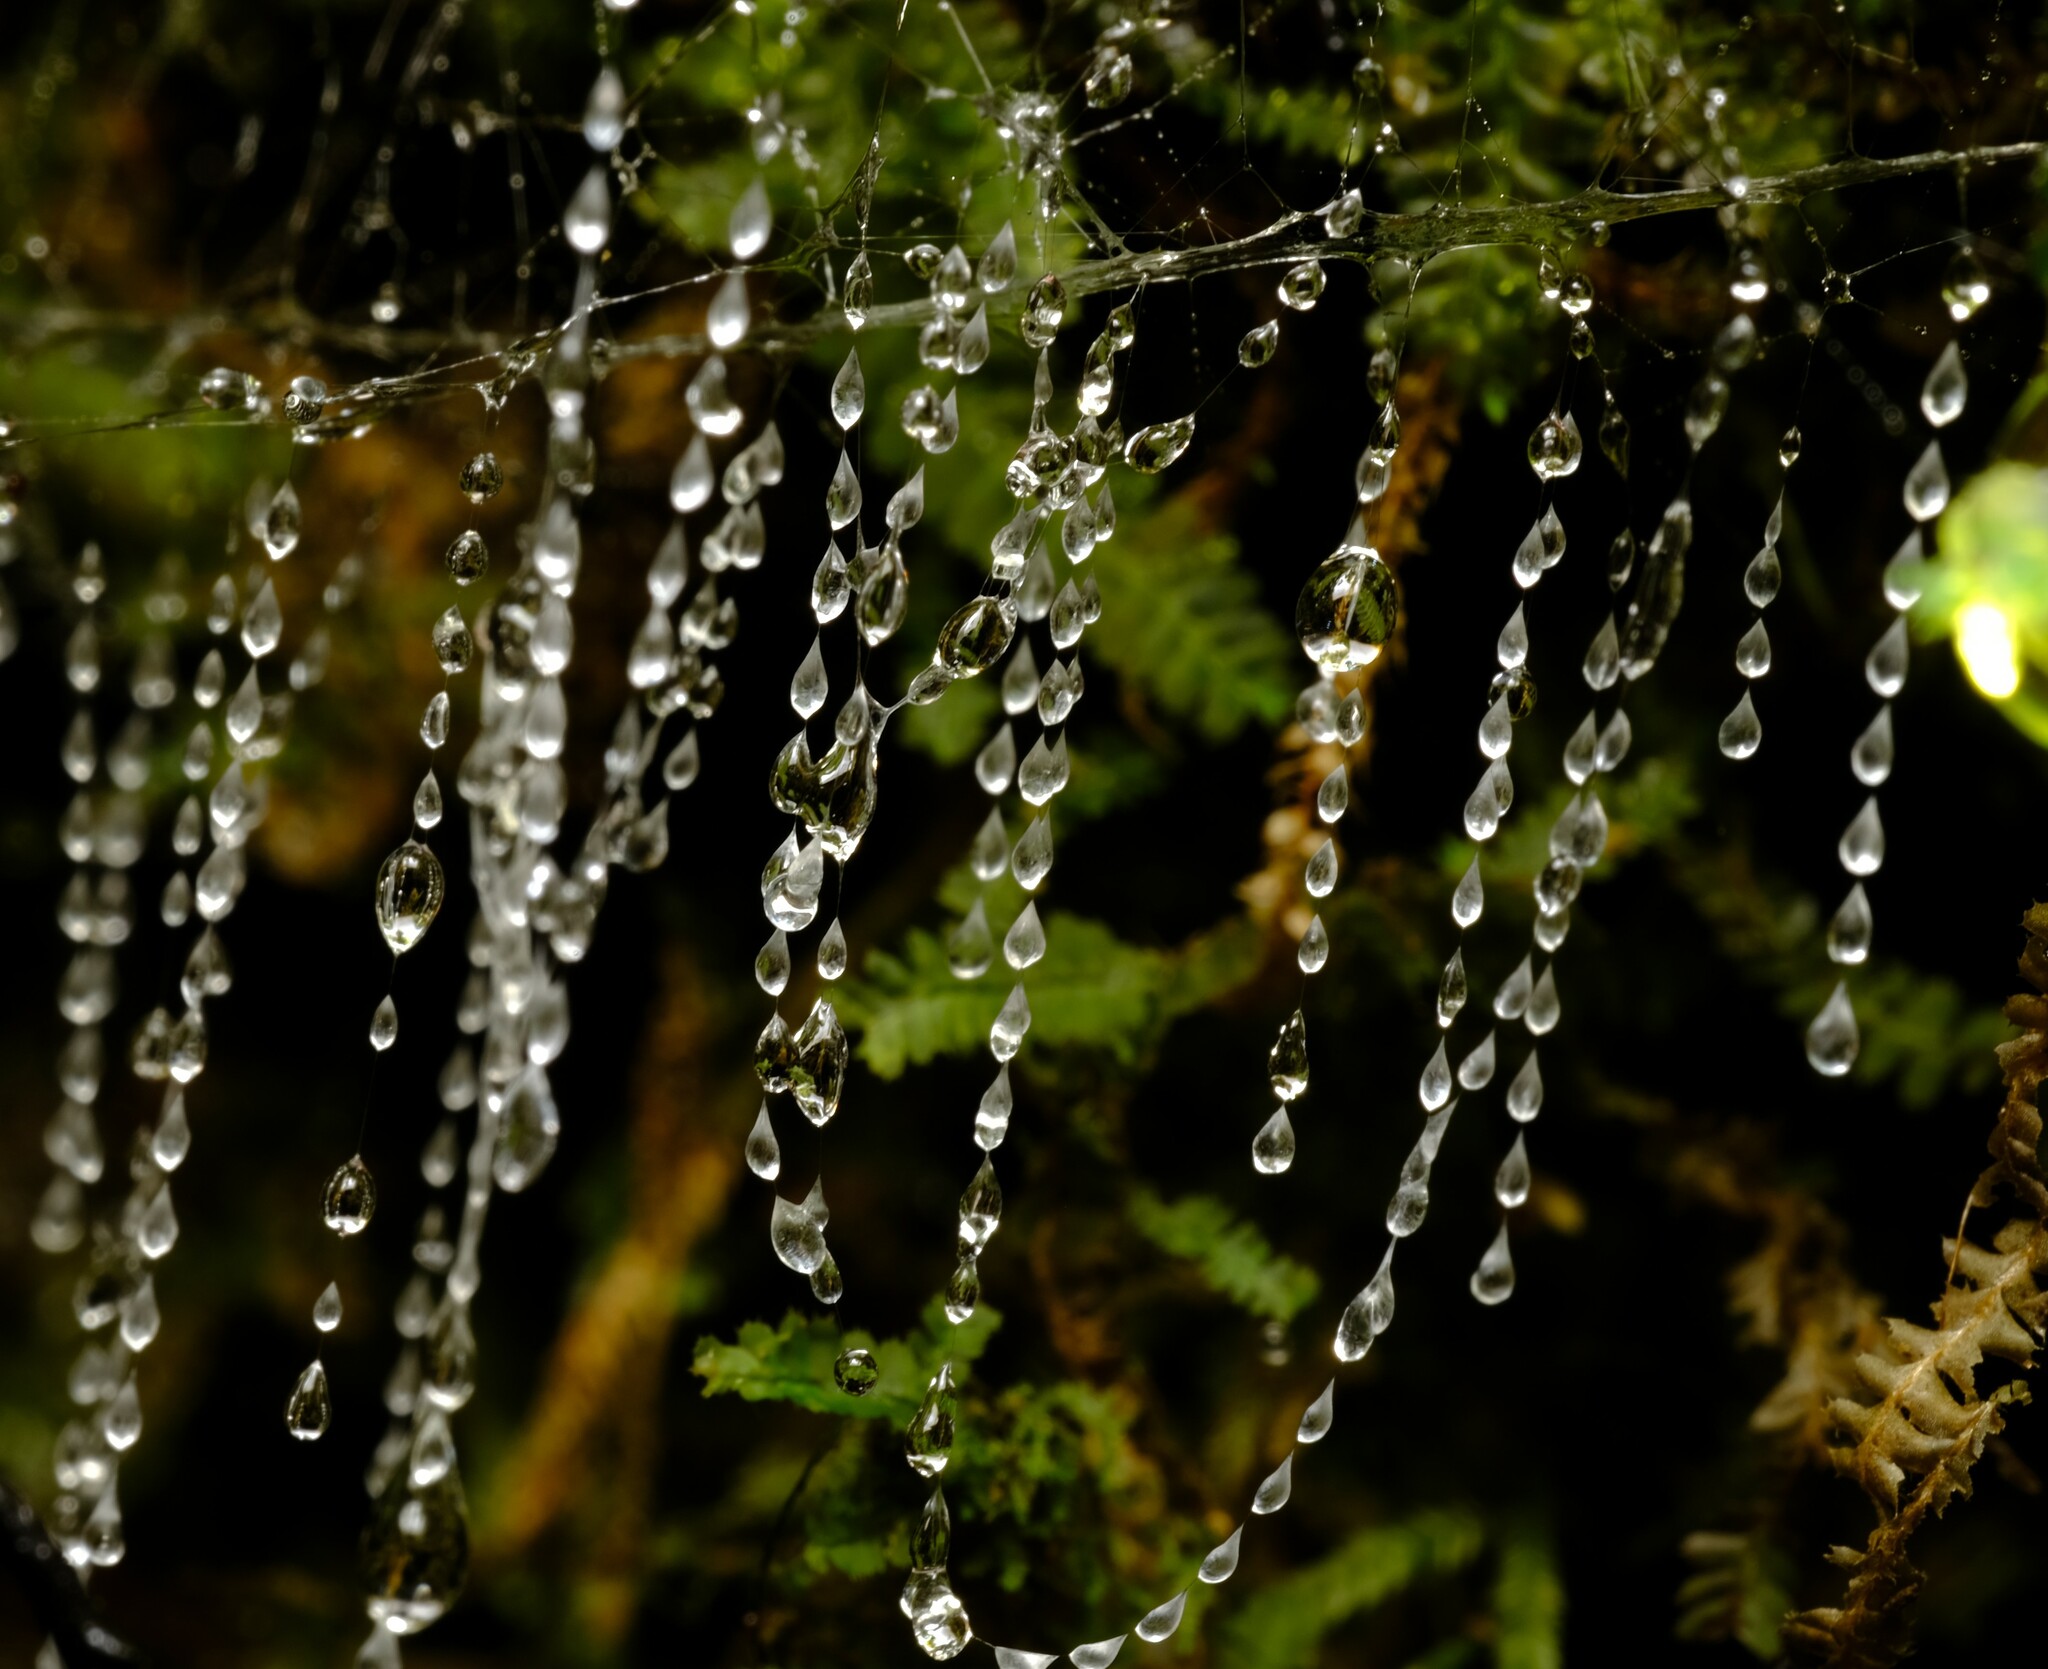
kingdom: Animalia
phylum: Arthropoda
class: Insecta
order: Diptera
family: Keroplatidae
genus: Arachnocampa
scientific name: Arachnocampa otwayensis
